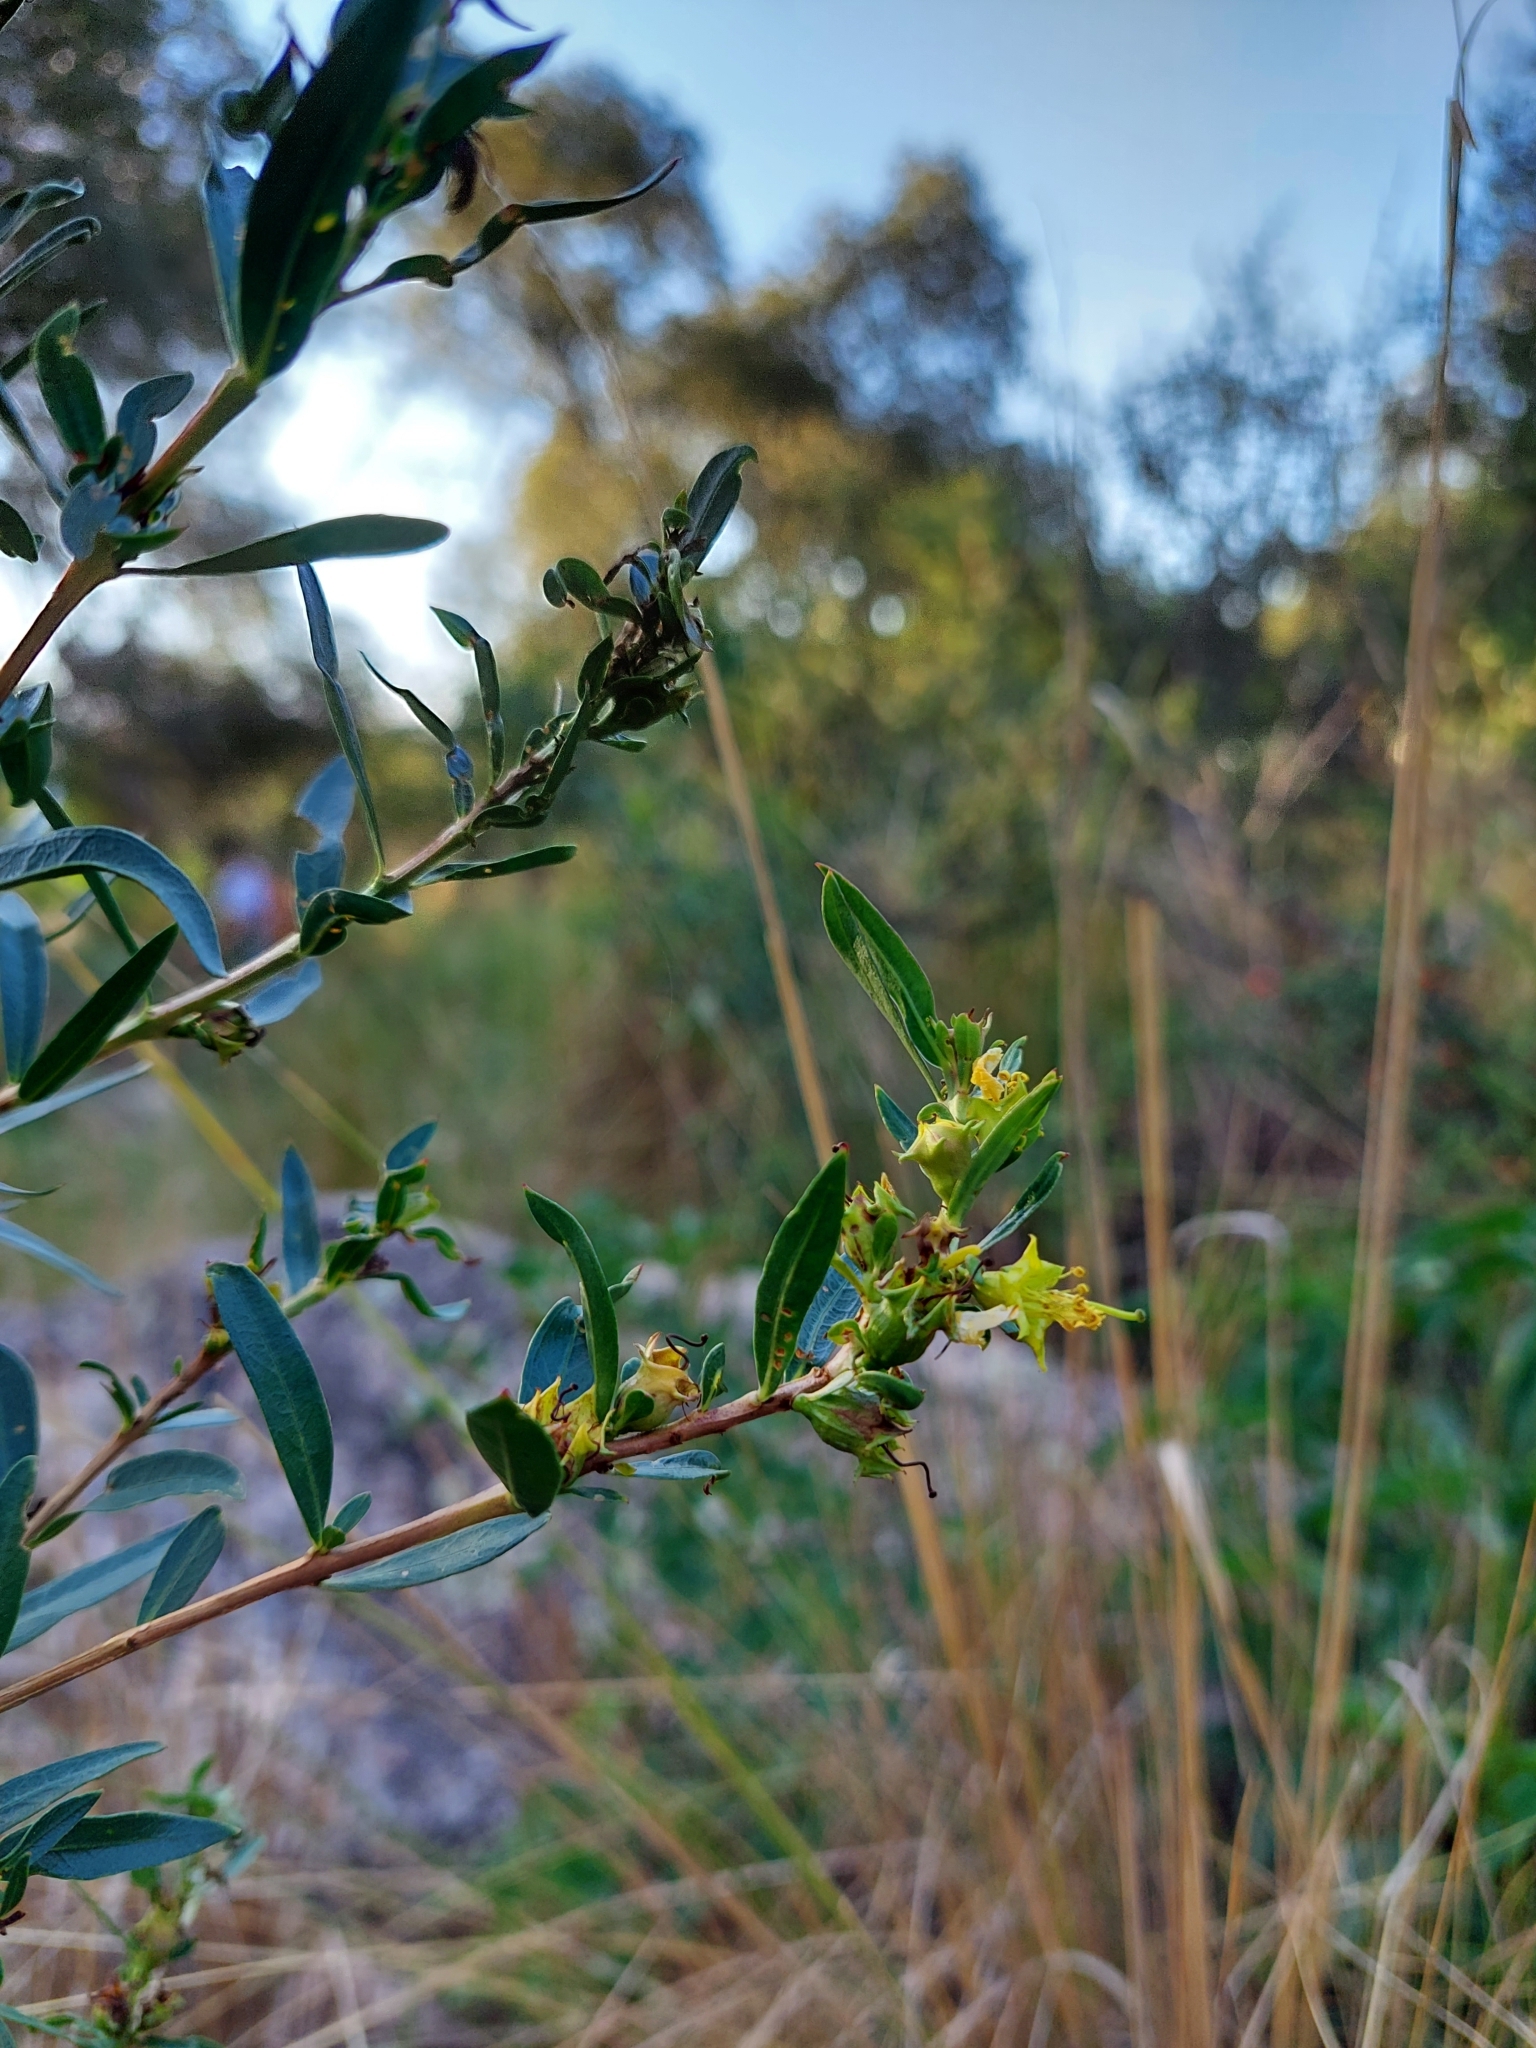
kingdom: Plantae
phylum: Tracheophyta
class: Magnoliopsida
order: Myrtales
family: Lythraceae
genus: Heimia
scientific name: Heimia salicifolia
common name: Willow-leaf heimia
